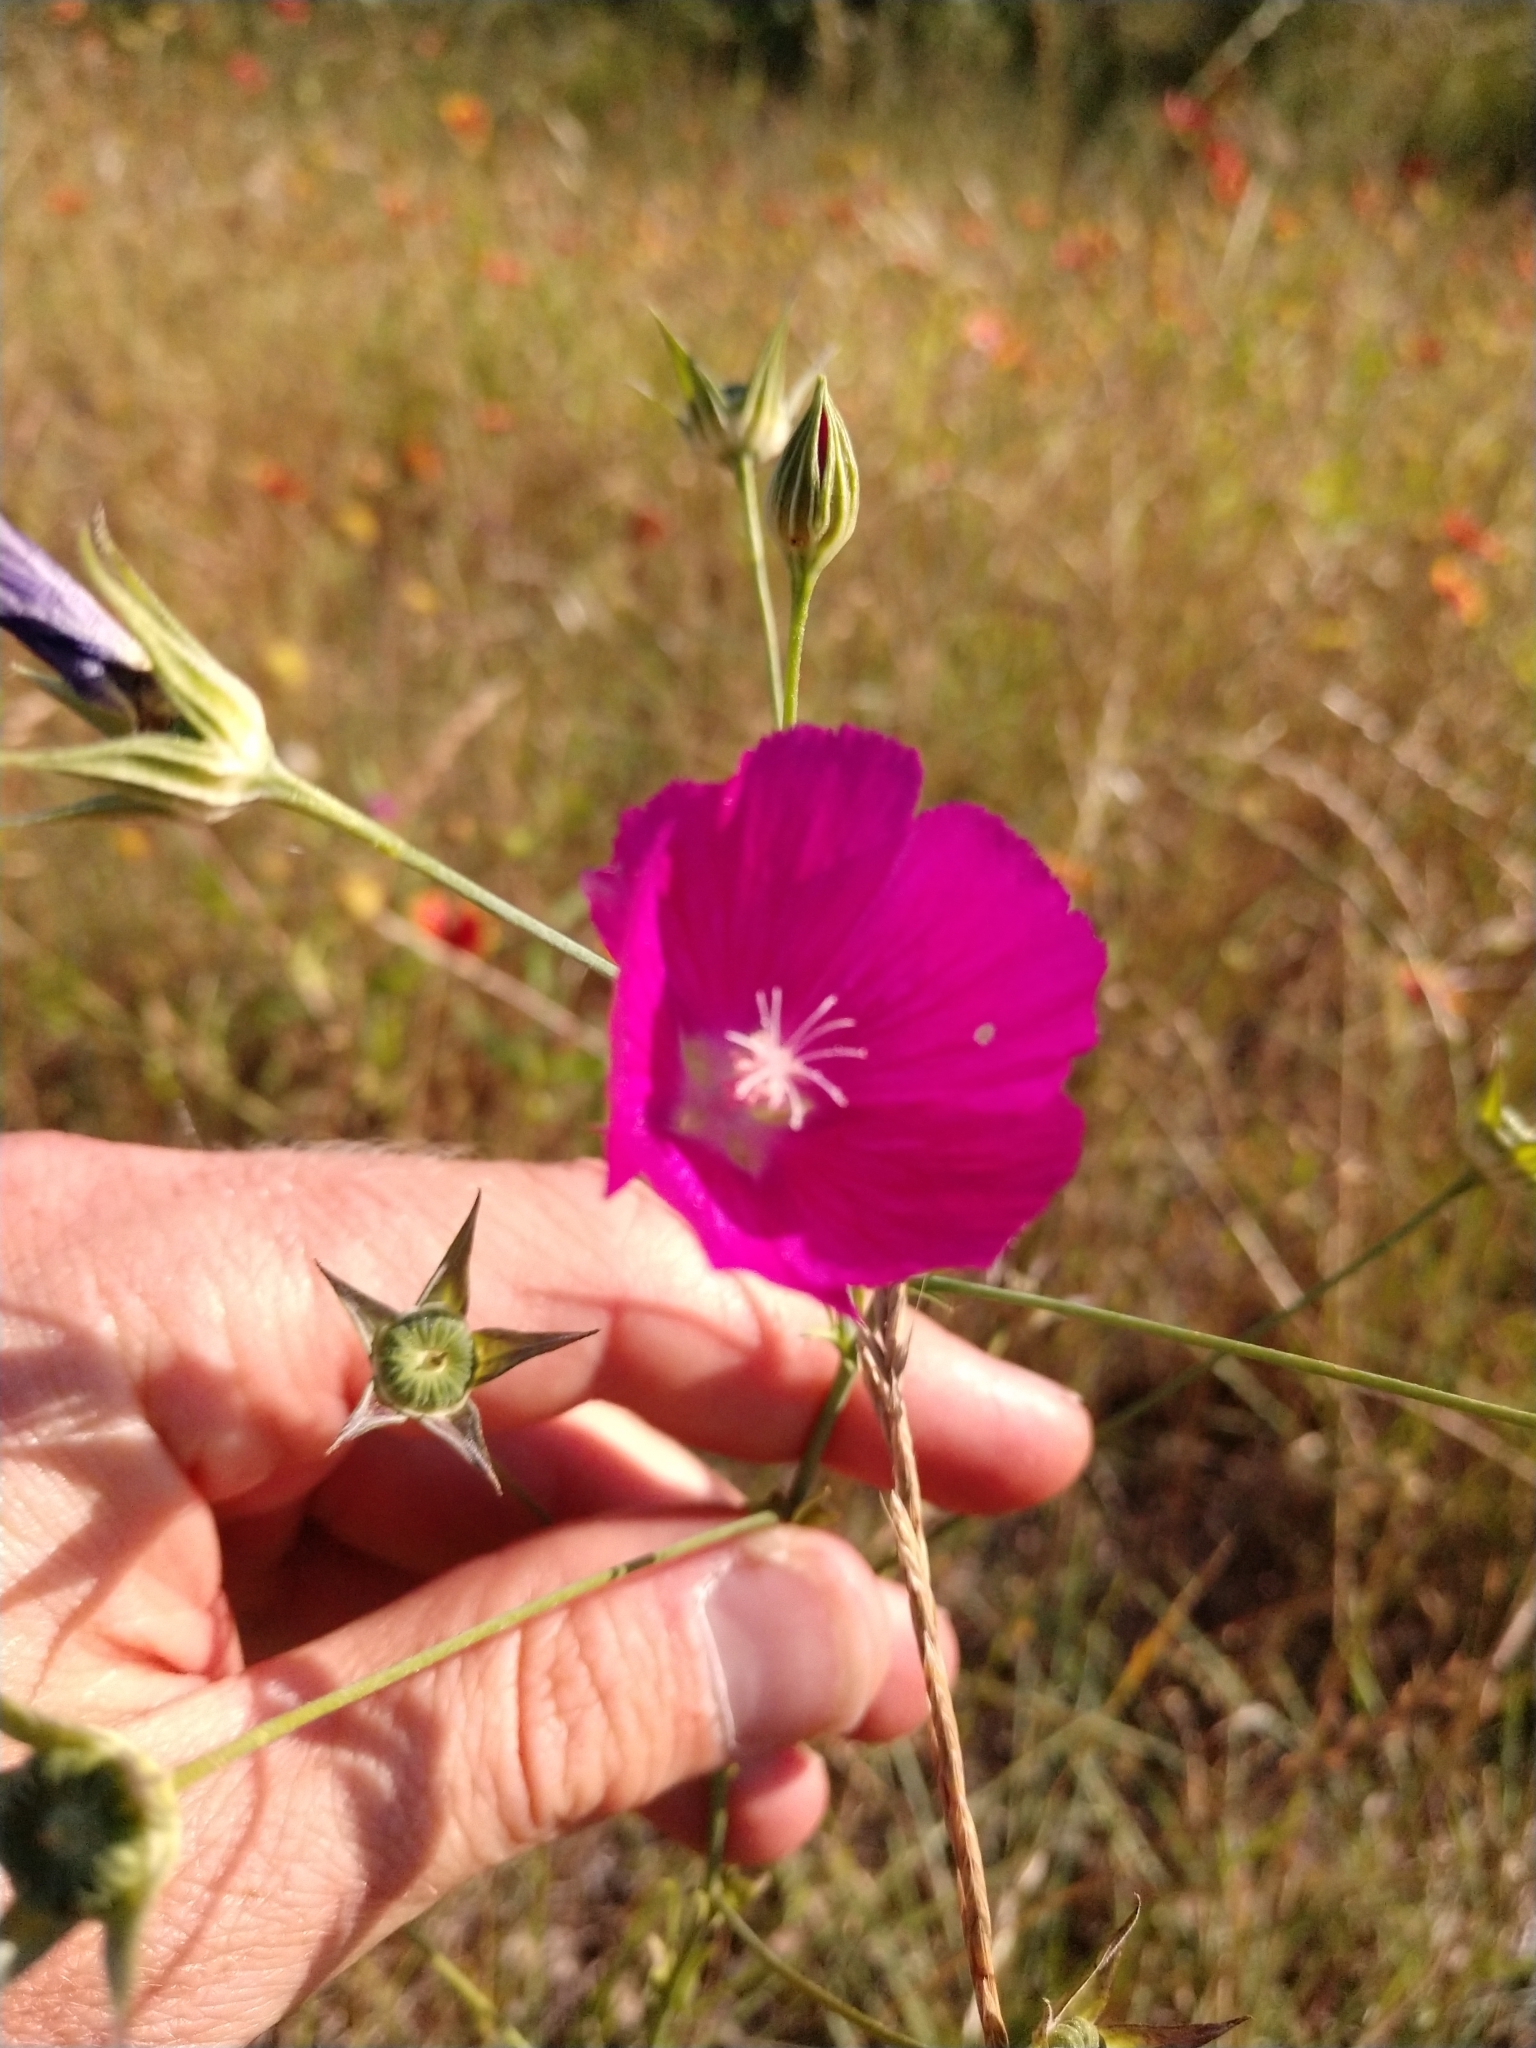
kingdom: Plantae
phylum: Tracheophyta
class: Magnoliopsida
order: Malvales
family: Malvaceae
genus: Callirhoe
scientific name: Callirhoe leiocarpa
